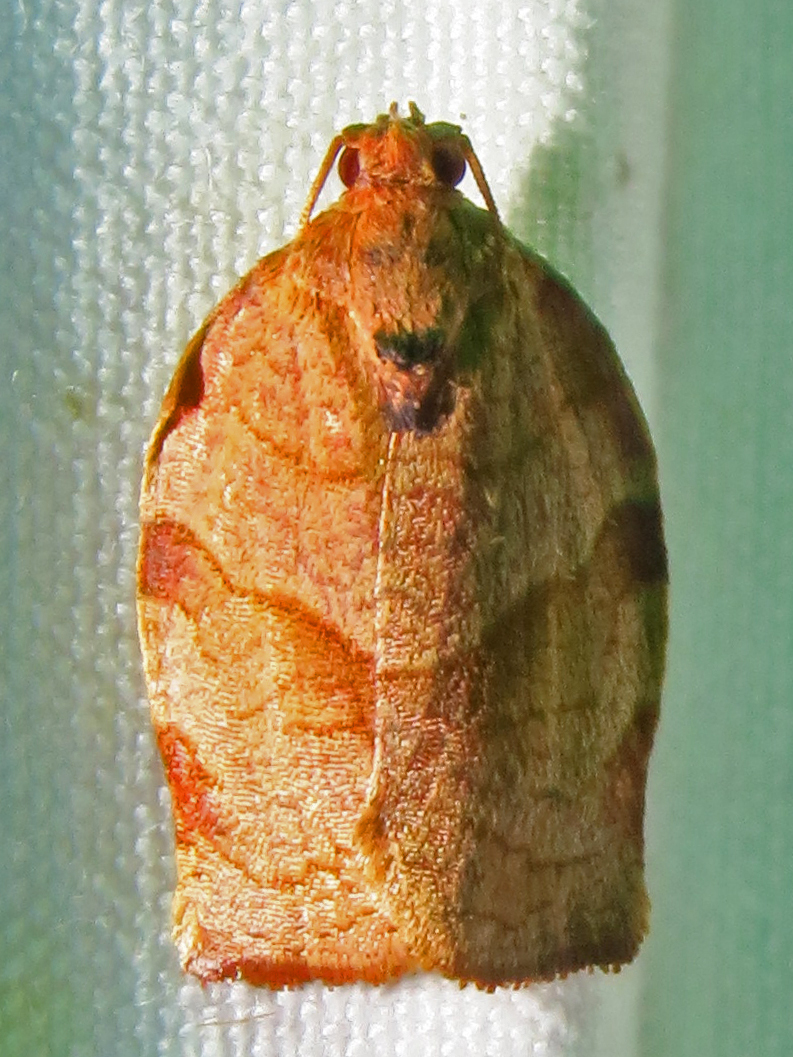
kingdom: Animalia
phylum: Arthropoda
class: Insecta
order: Lepidoptera
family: Tortricidae
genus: Choristoneura
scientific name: Choristoneura rosaceana
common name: Oblique-banded leafroller moth
